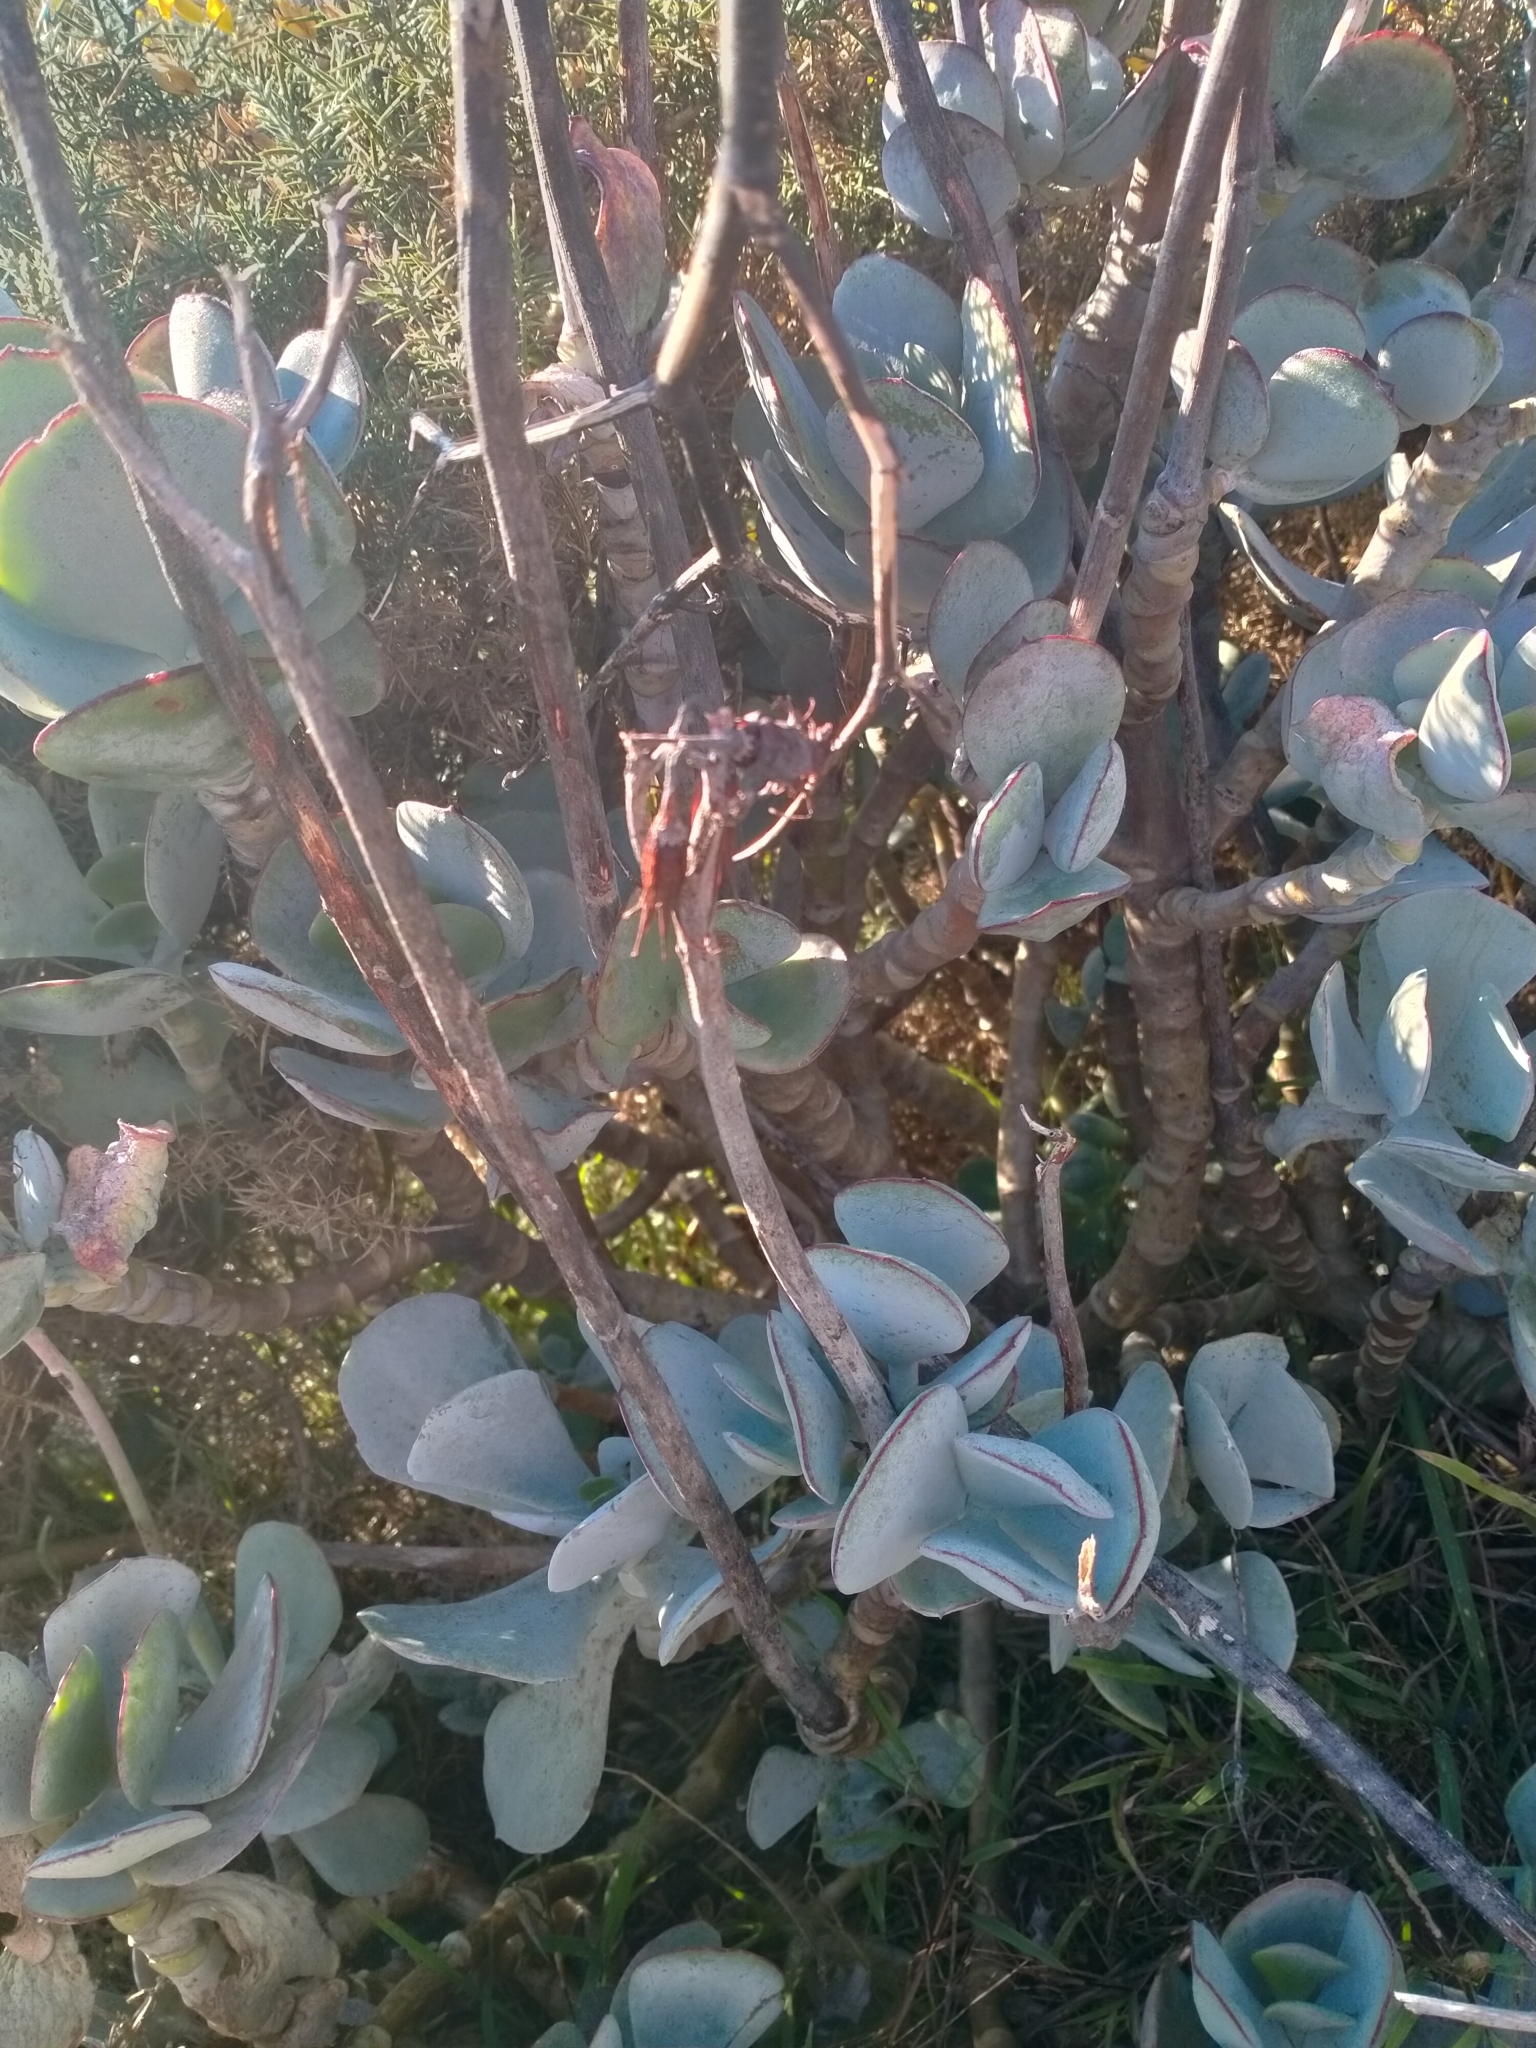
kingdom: Plantae
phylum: Tracheophyta
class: Magnoliopsida
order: Saxifragales
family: Crassulaceae
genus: Cotyledon
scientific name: Cotyledon orbiculata
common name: Pig's ear
